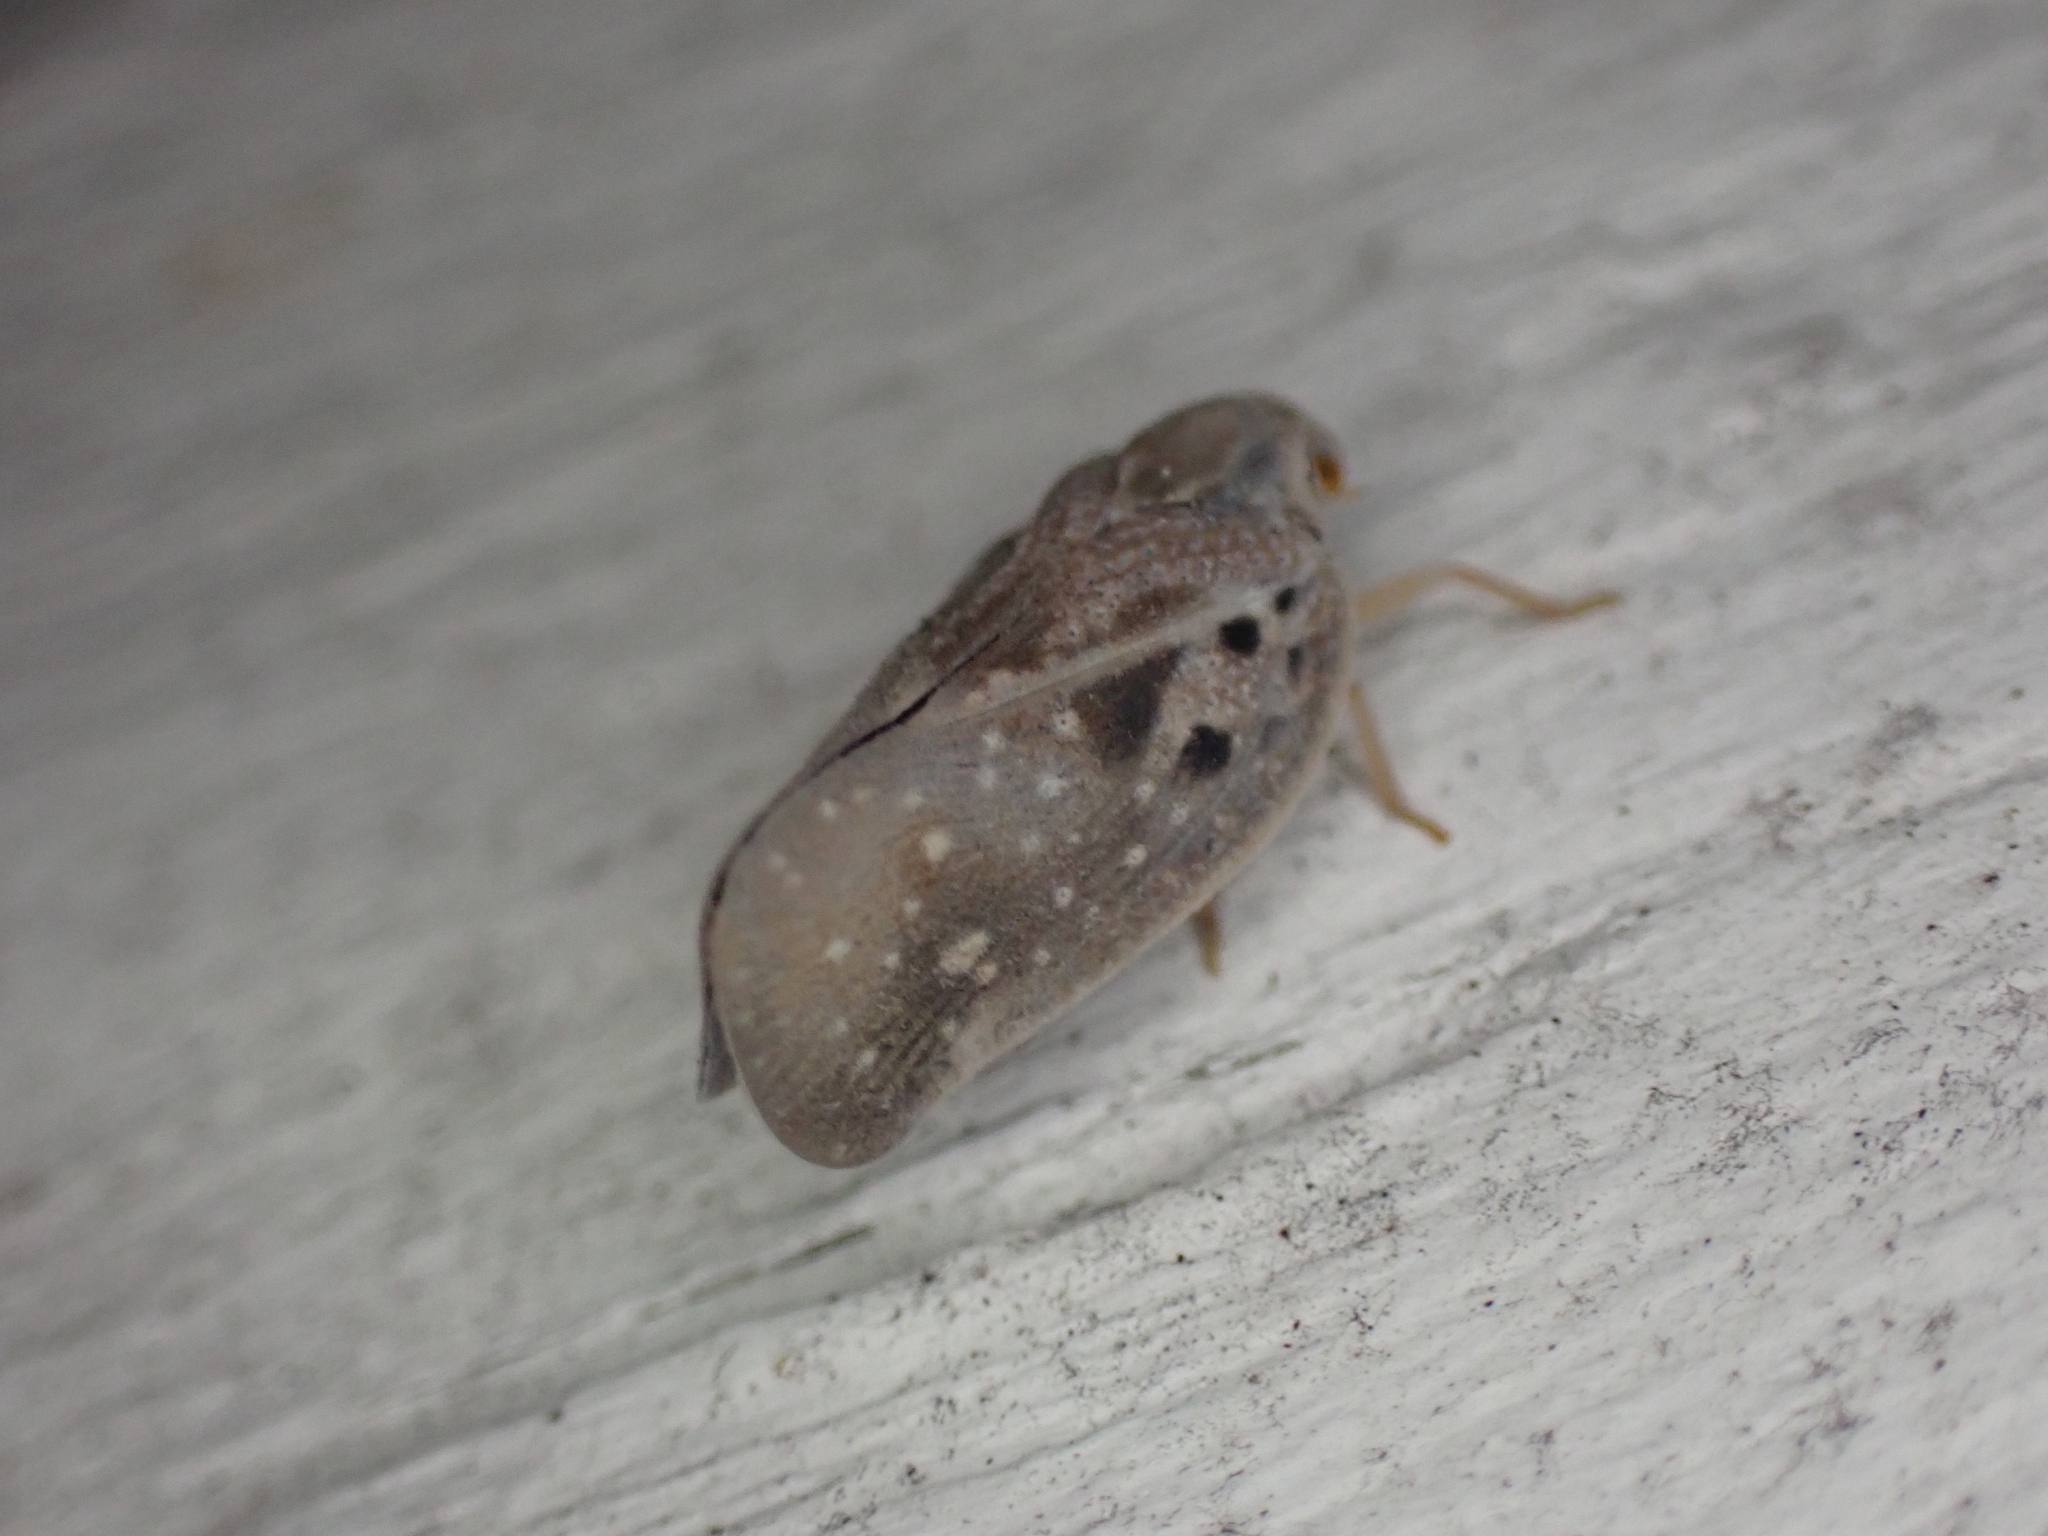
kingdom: Animalia
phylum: Arthropoda
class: Insecta
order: Hemiptera
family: Flatidae
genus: Metcalfa
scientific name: Metcalfa pruinosa
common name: Citrus flatid planthopper
